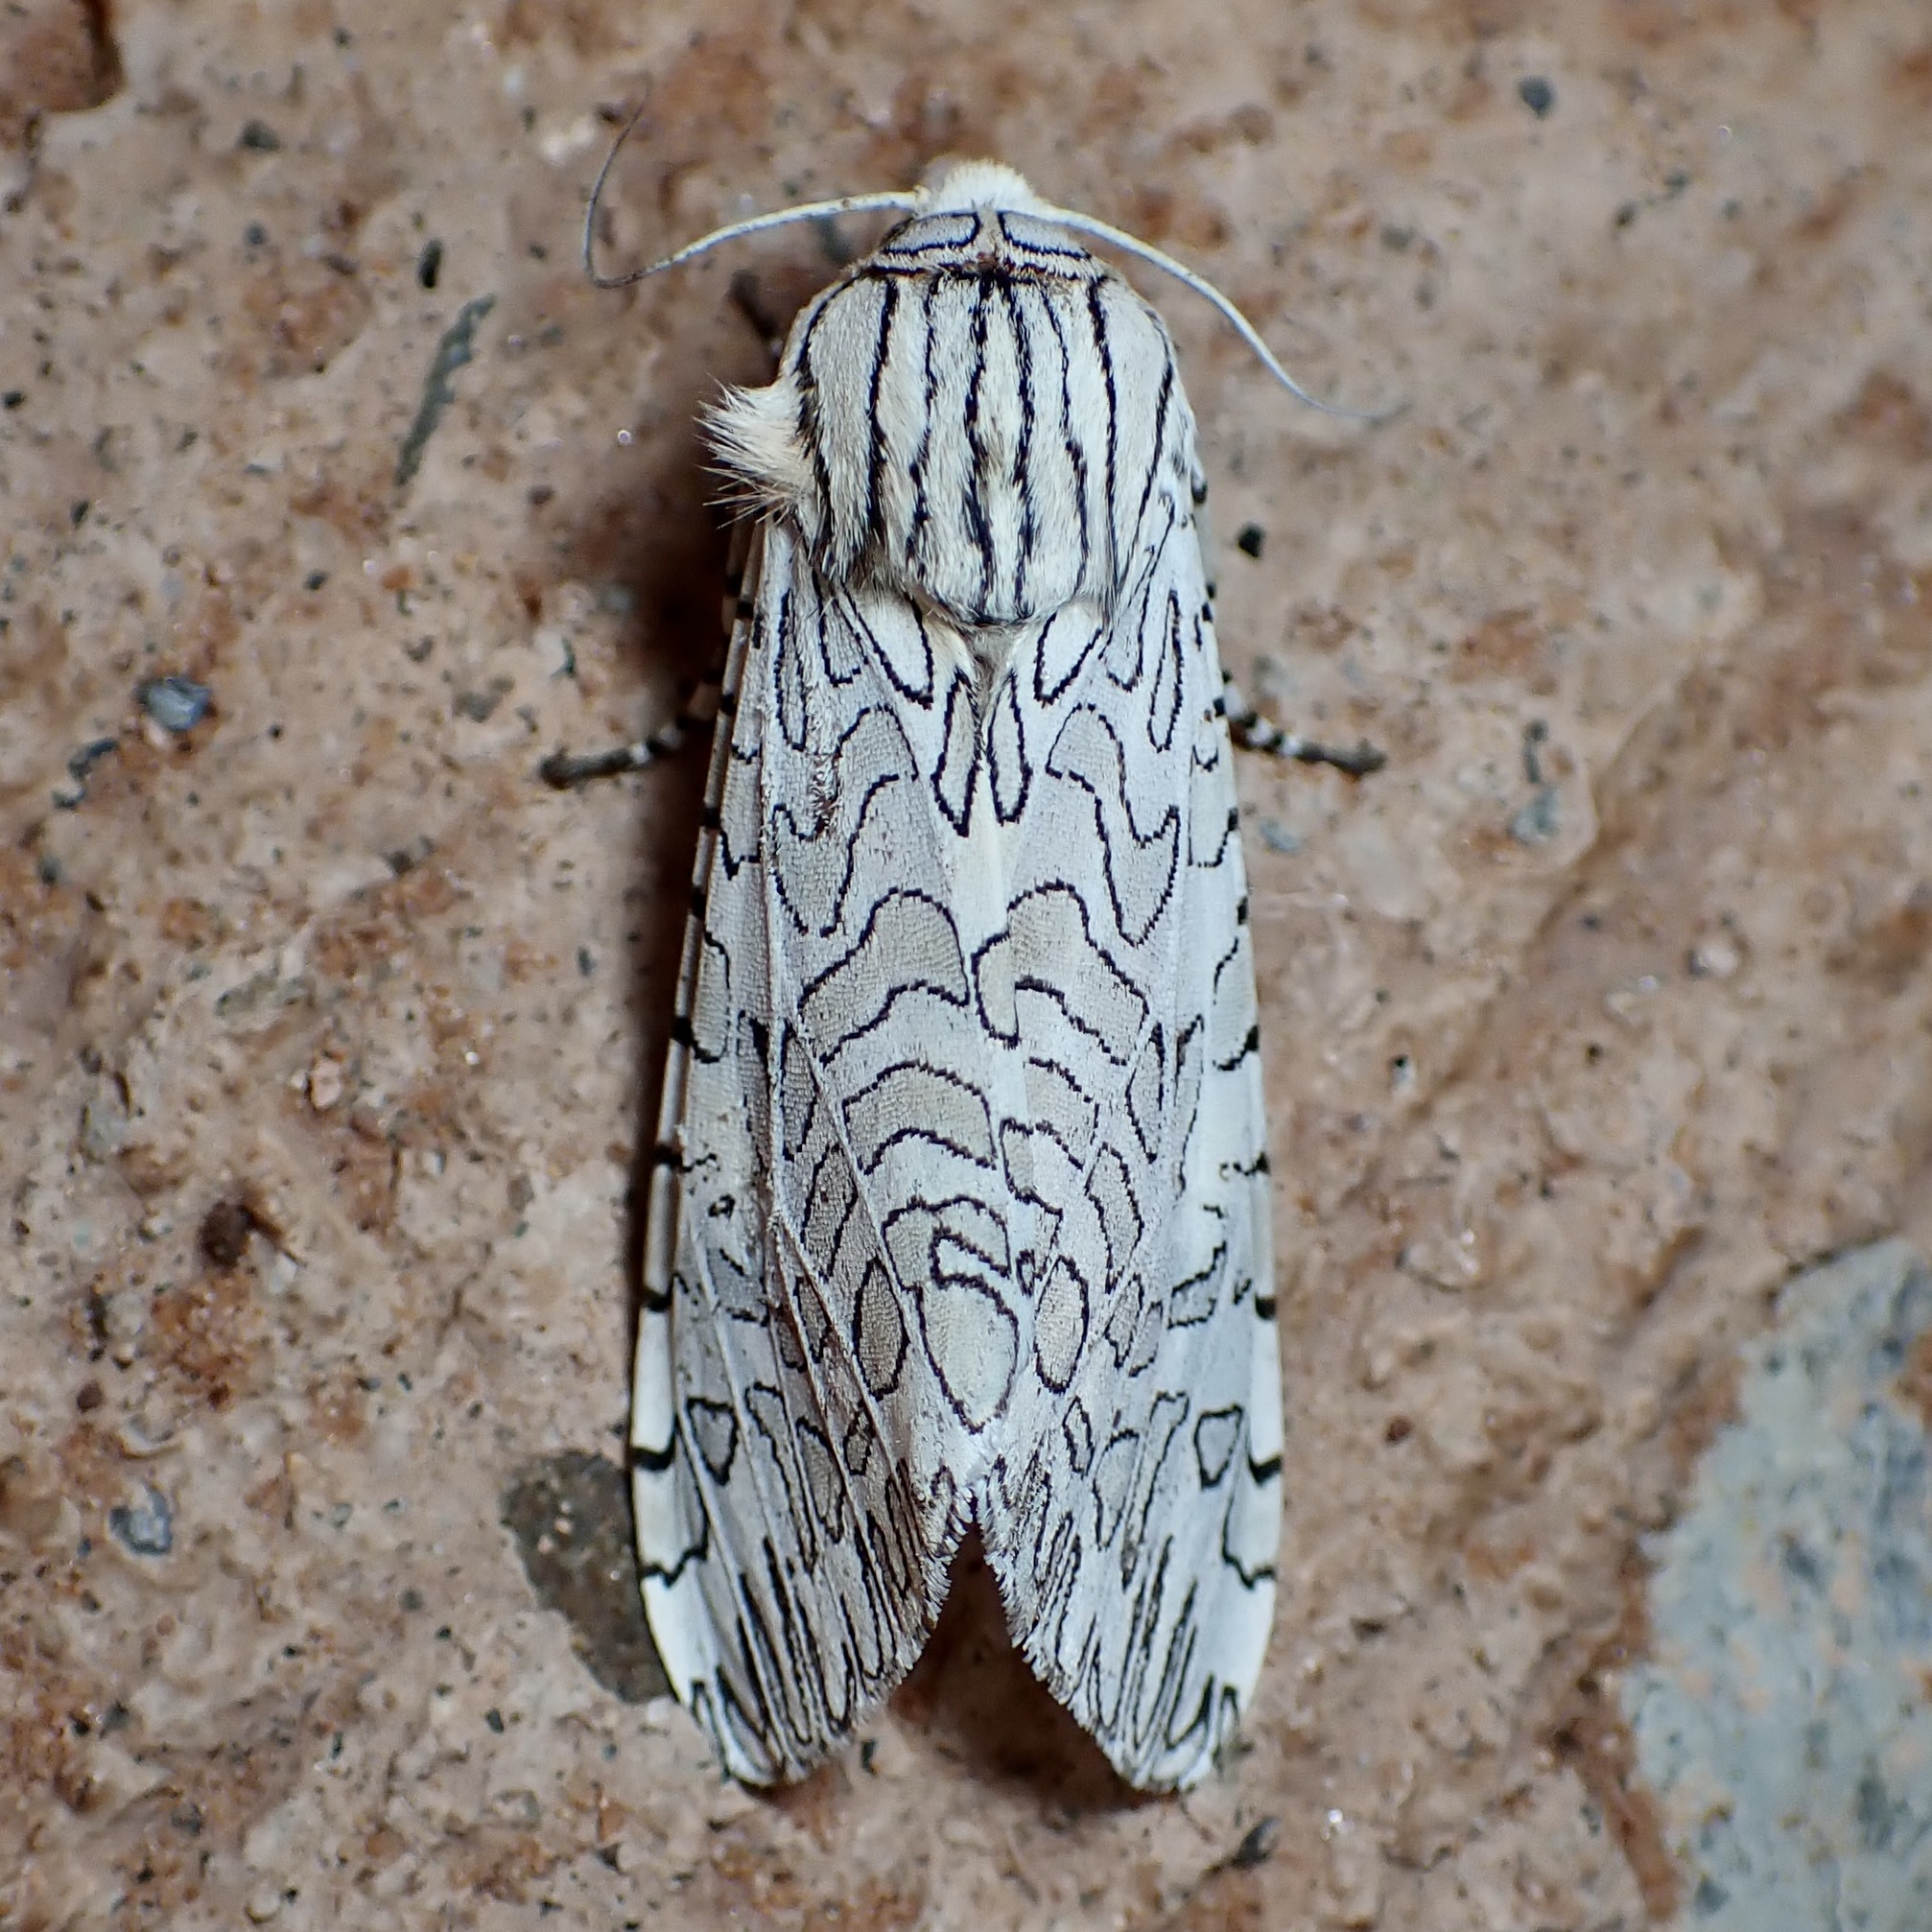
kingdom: Animalia
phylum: Arthropoda
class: Insecta
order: Lepidoptera
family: Erebidae
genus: Arachnis
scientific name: Arachnis citra
